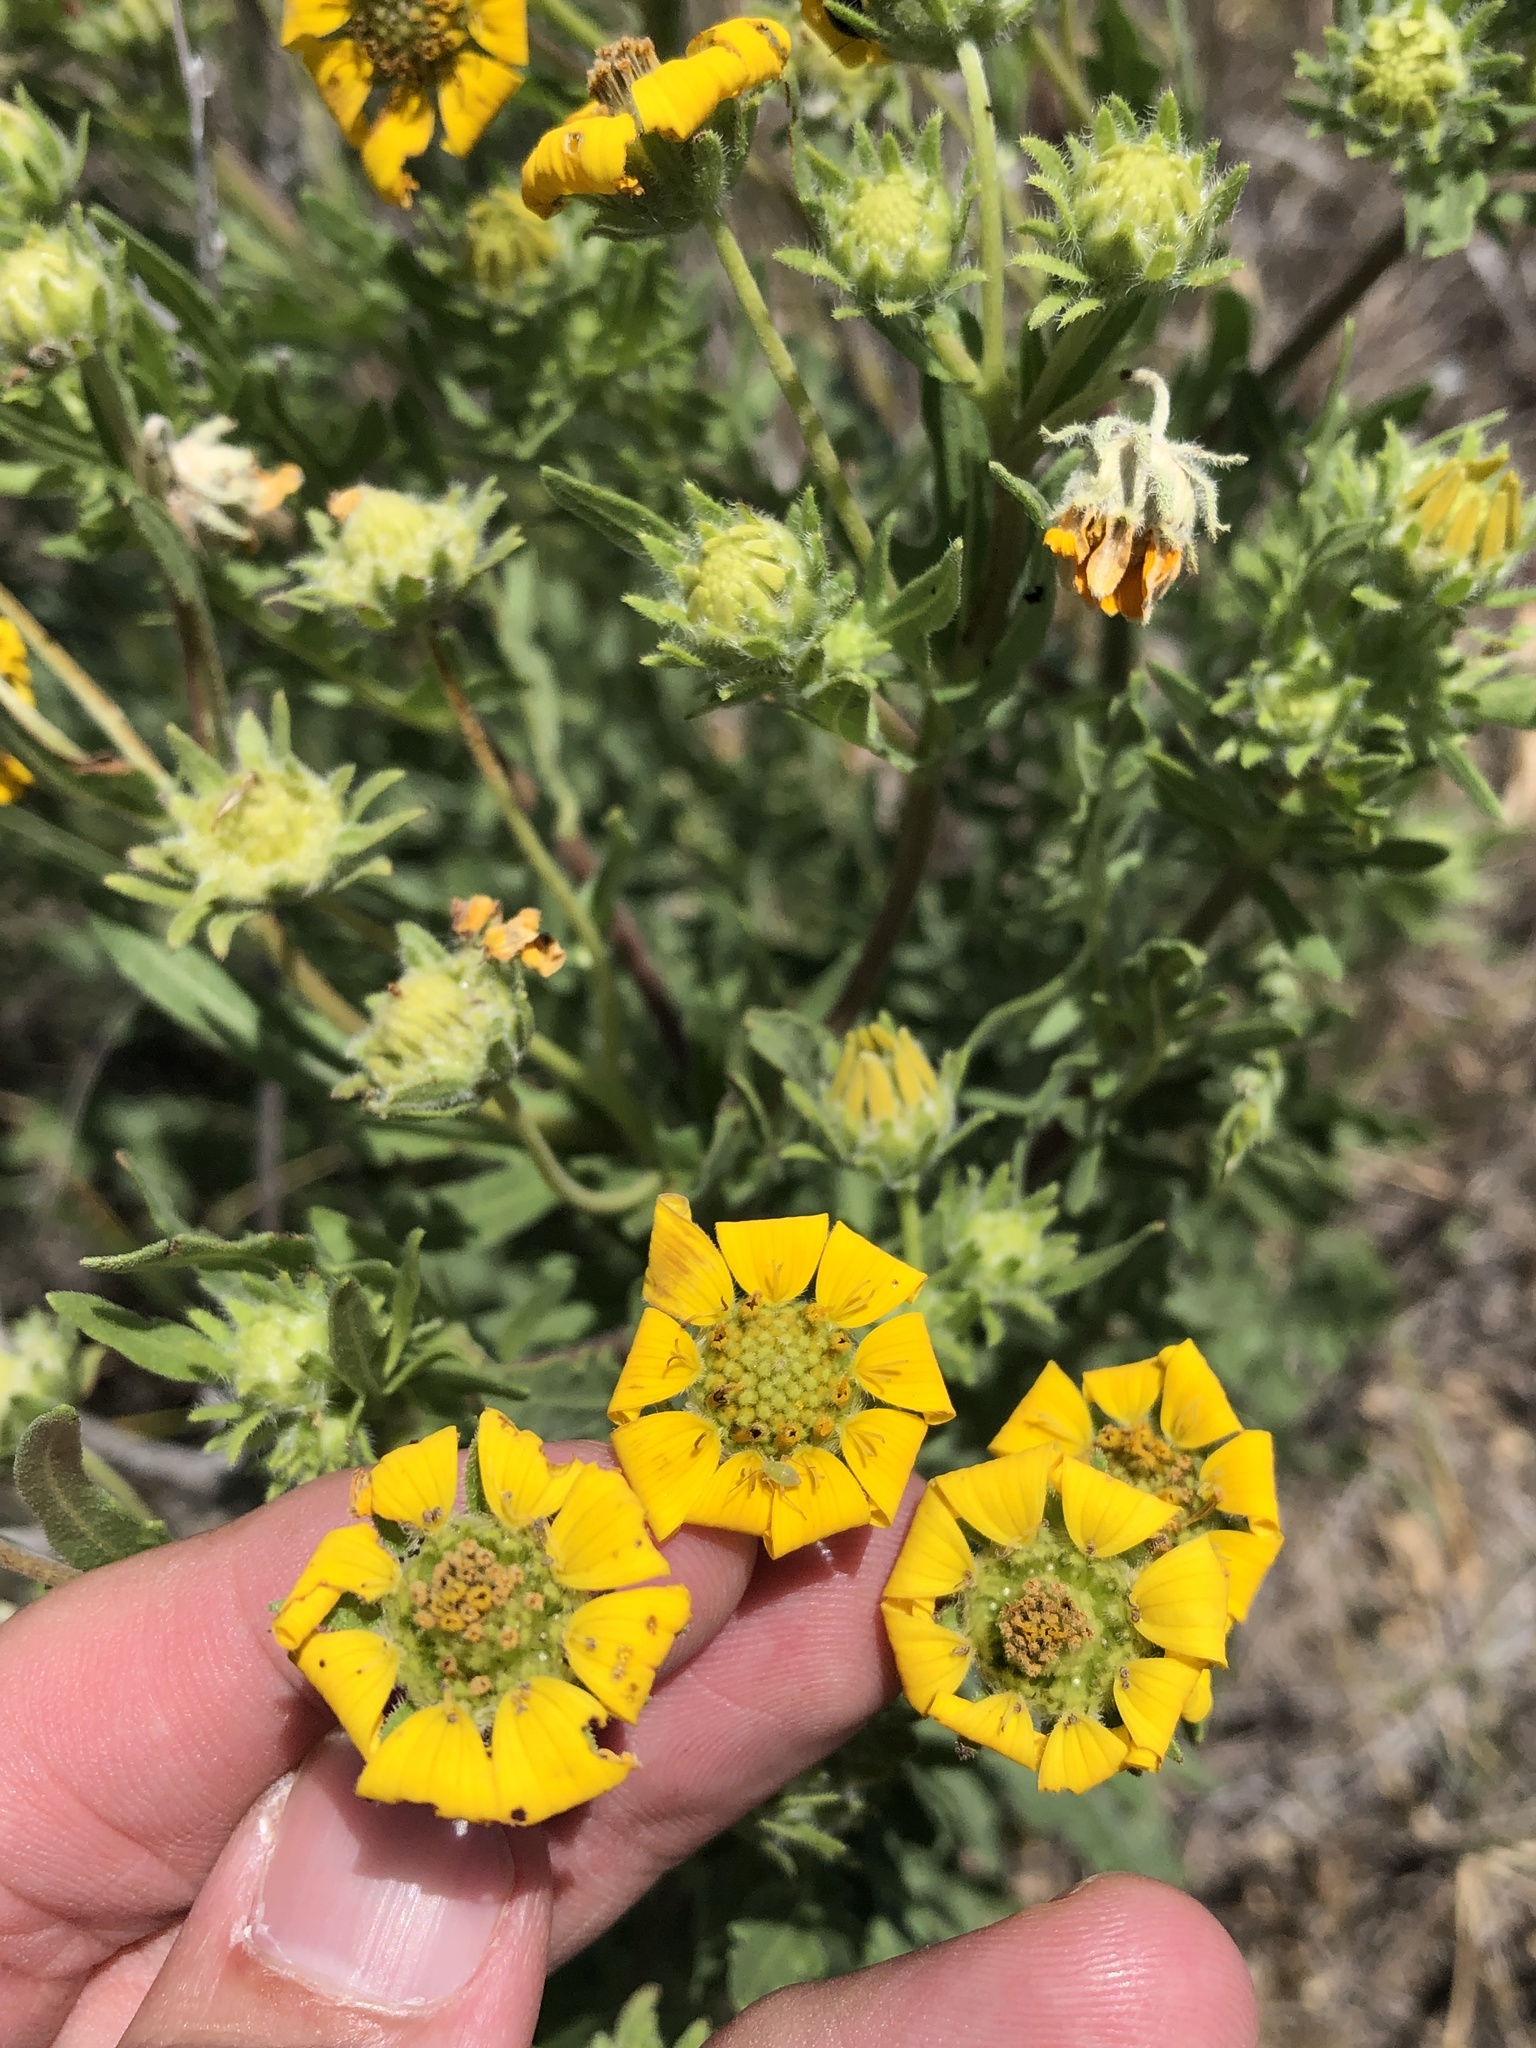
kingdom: Plantae
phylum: Tracheophyta
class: Magnoliopsida
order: Asterales
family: Asteraceae
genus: Engelmannia
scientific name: Engelmannia peristenia
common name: Engelmann's daisy
